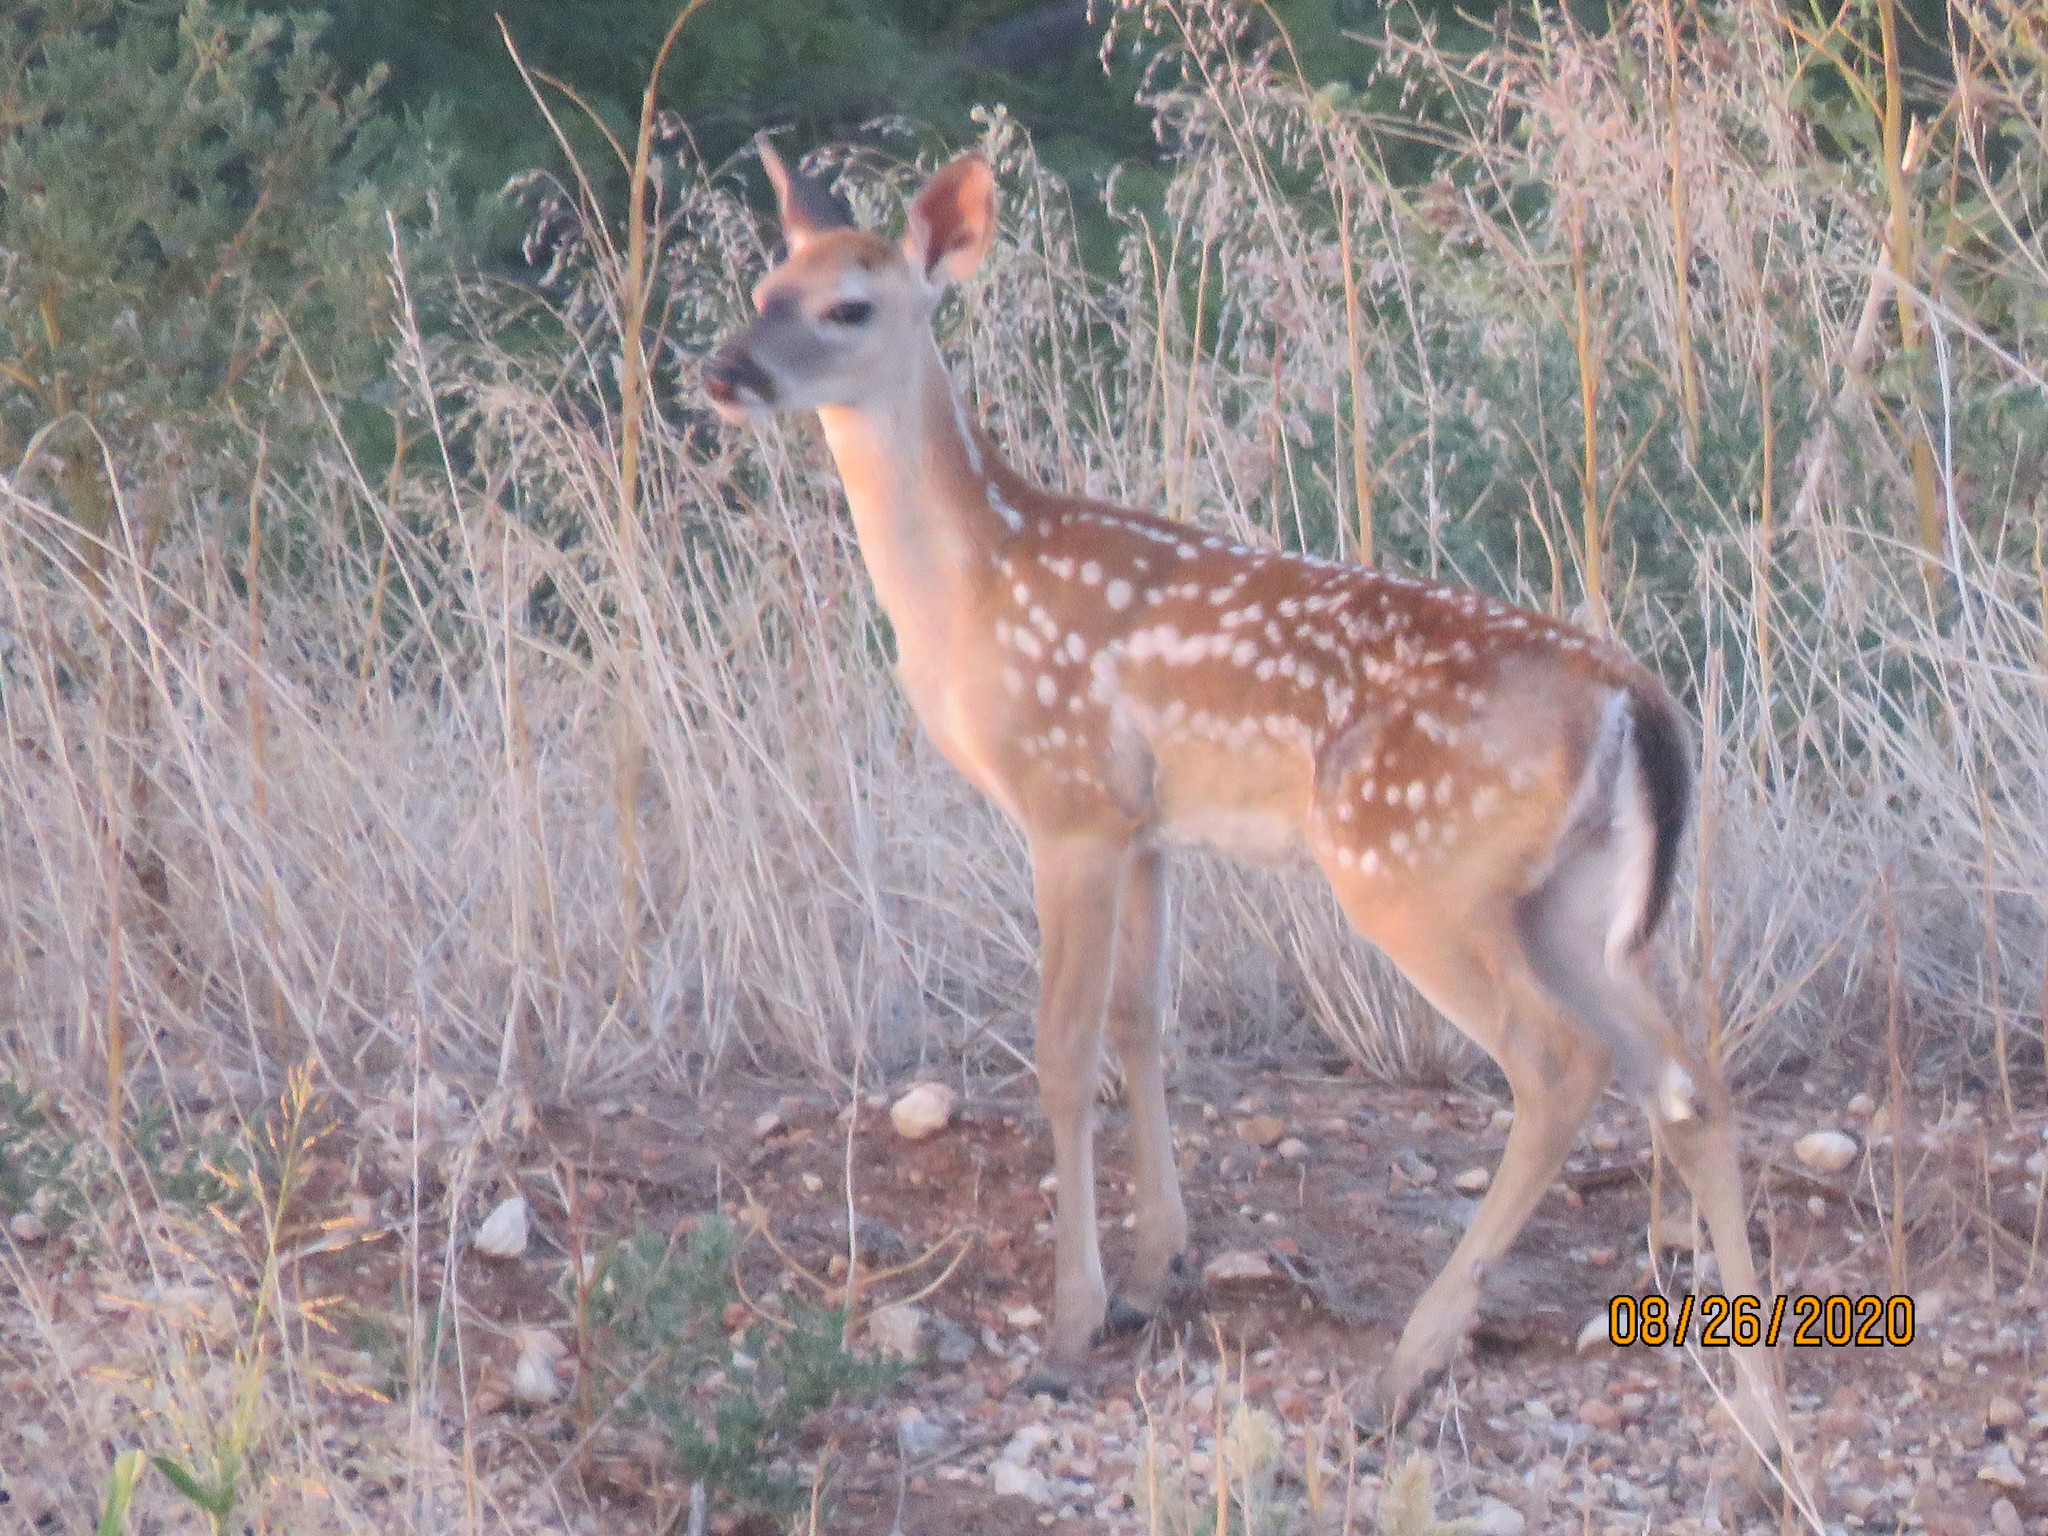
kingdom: Animalia
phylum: Chordata
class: Mammalia
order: Artiodactyla
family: Cervidae
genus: Odocoileus
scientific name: Odocoileus virginianus
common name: White-tailed deer
